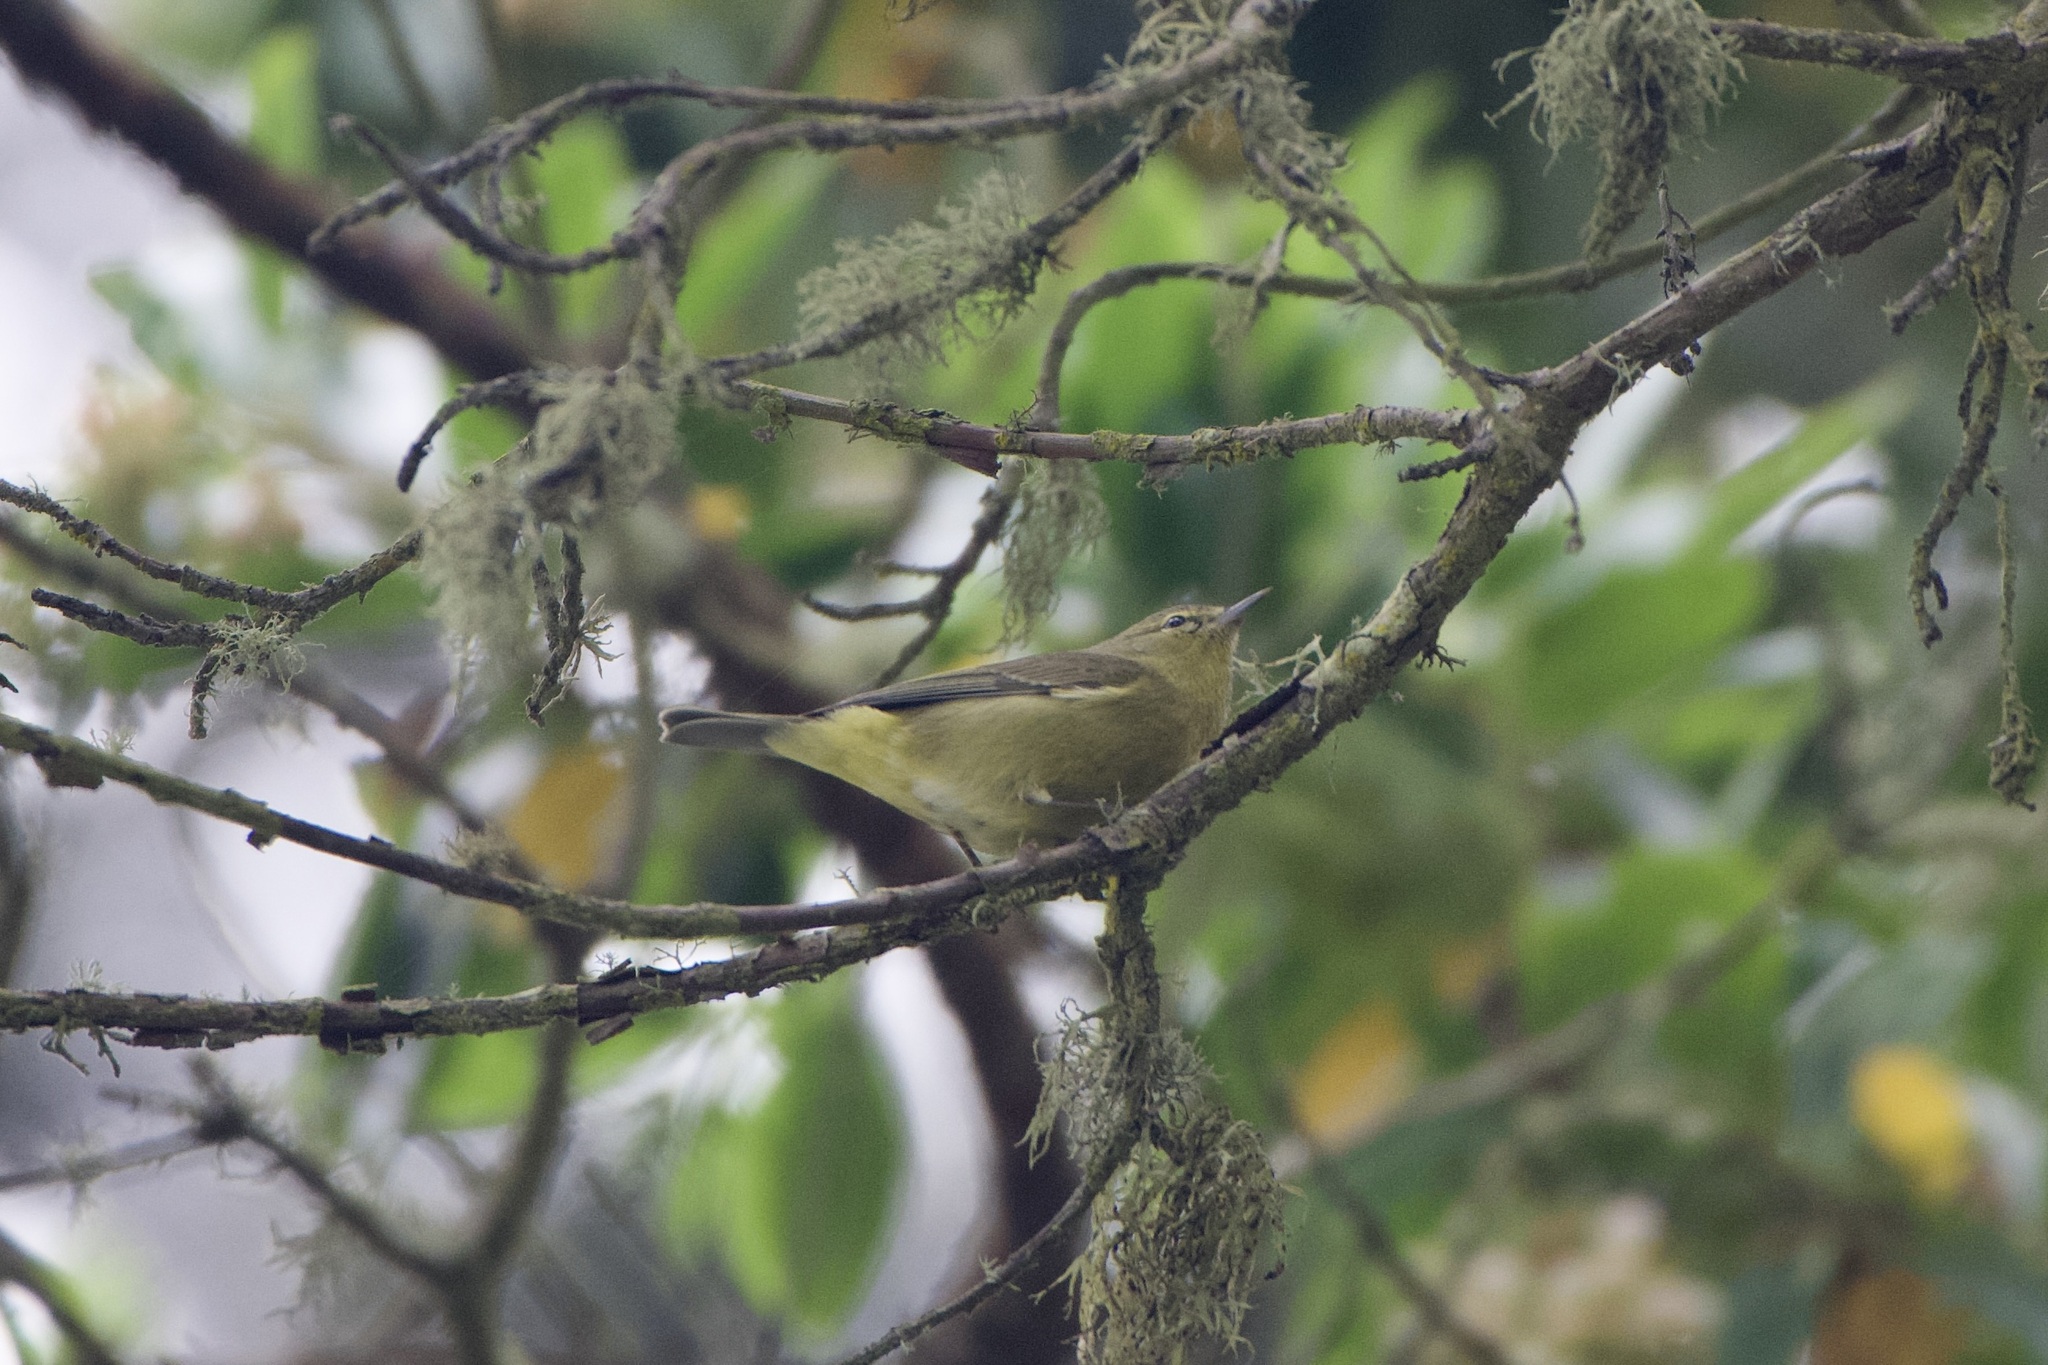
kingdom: Animalia
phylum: Chordata
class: Aves
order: Passeriformes
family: Parulidae
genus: Leiothlypis
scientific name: Leiothlypis celata
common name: Orange-crowned warbler
